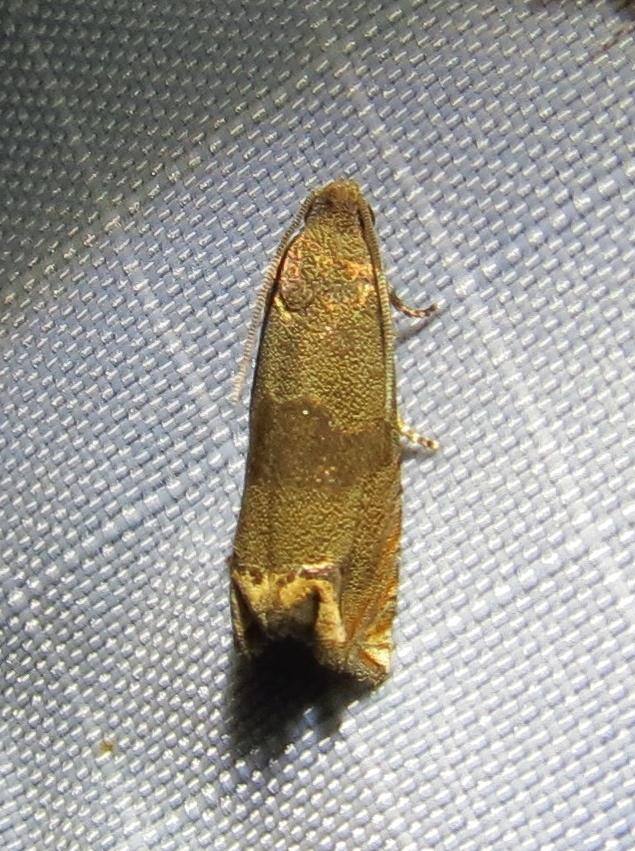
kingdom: Animalia
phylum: Arthropoda
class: Insecta
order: Lepidoptera
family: Tortricidae
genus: Epiblema
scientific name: Epiblema strenuana
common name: Ragweed borer moth
